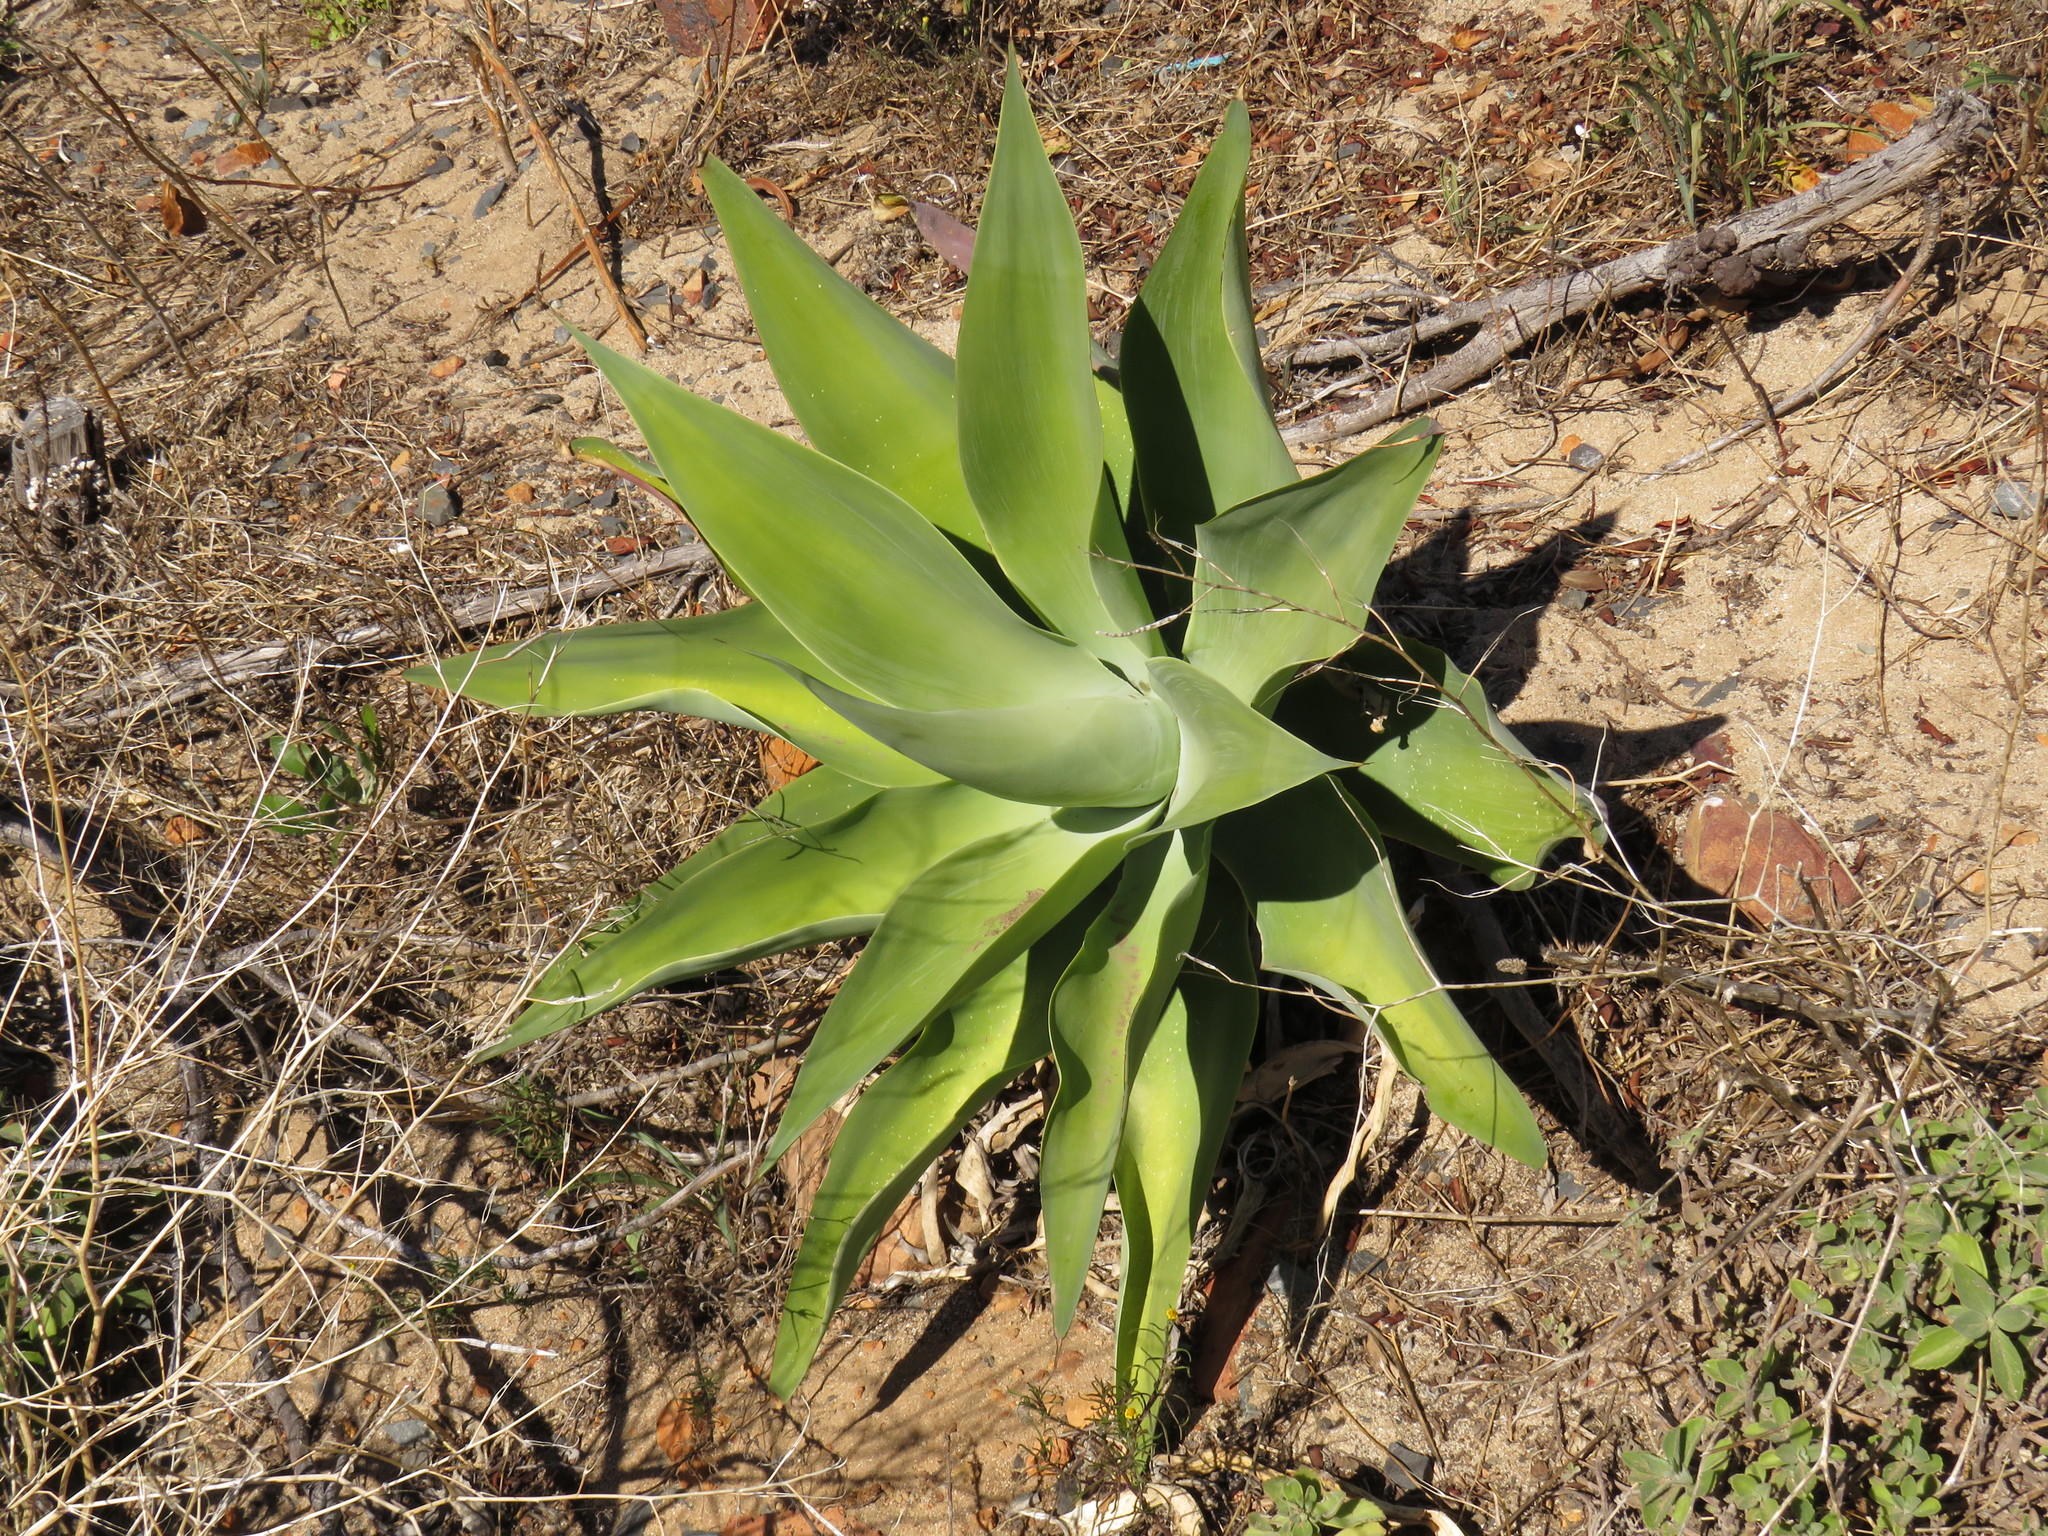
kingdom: Plantae
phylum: Tracheophyta
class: Liliopsida
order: Asparagales
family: Asparagaceae
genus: Agave
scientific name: Agave attenuata
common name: Fox tail agave
